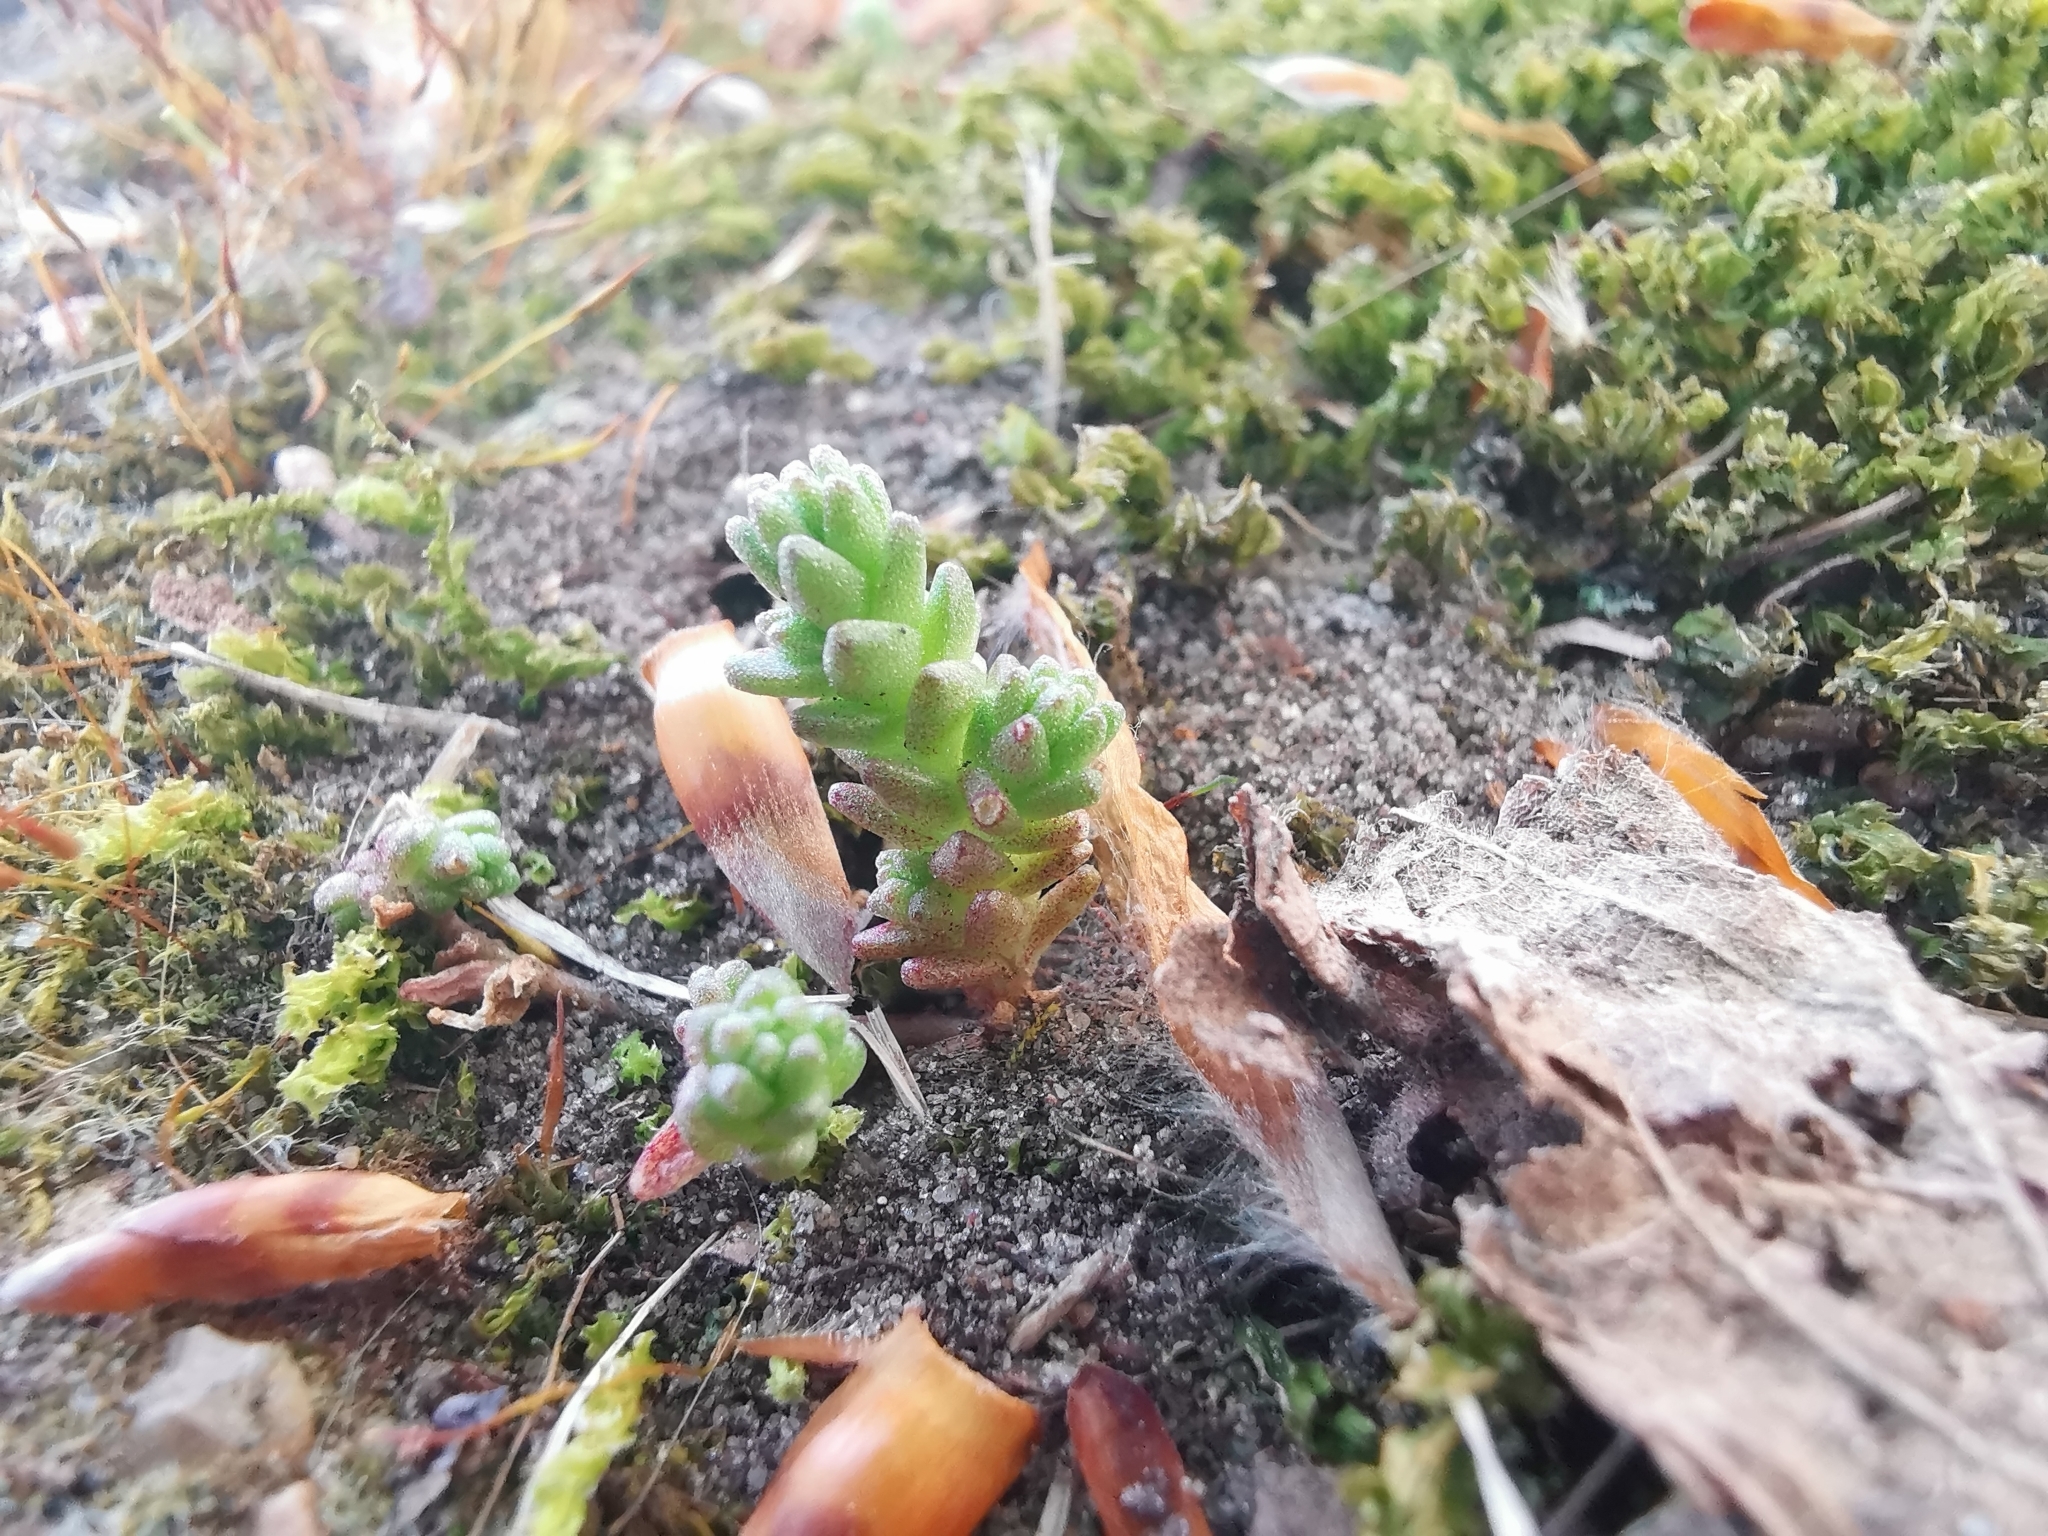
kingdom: Plantae
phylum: Tracheophyta
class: Magnoliopsida
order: Saxifragales
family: Crassulaceae
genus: Sedum
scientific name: Sedum acre
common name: Biting stonecrop
